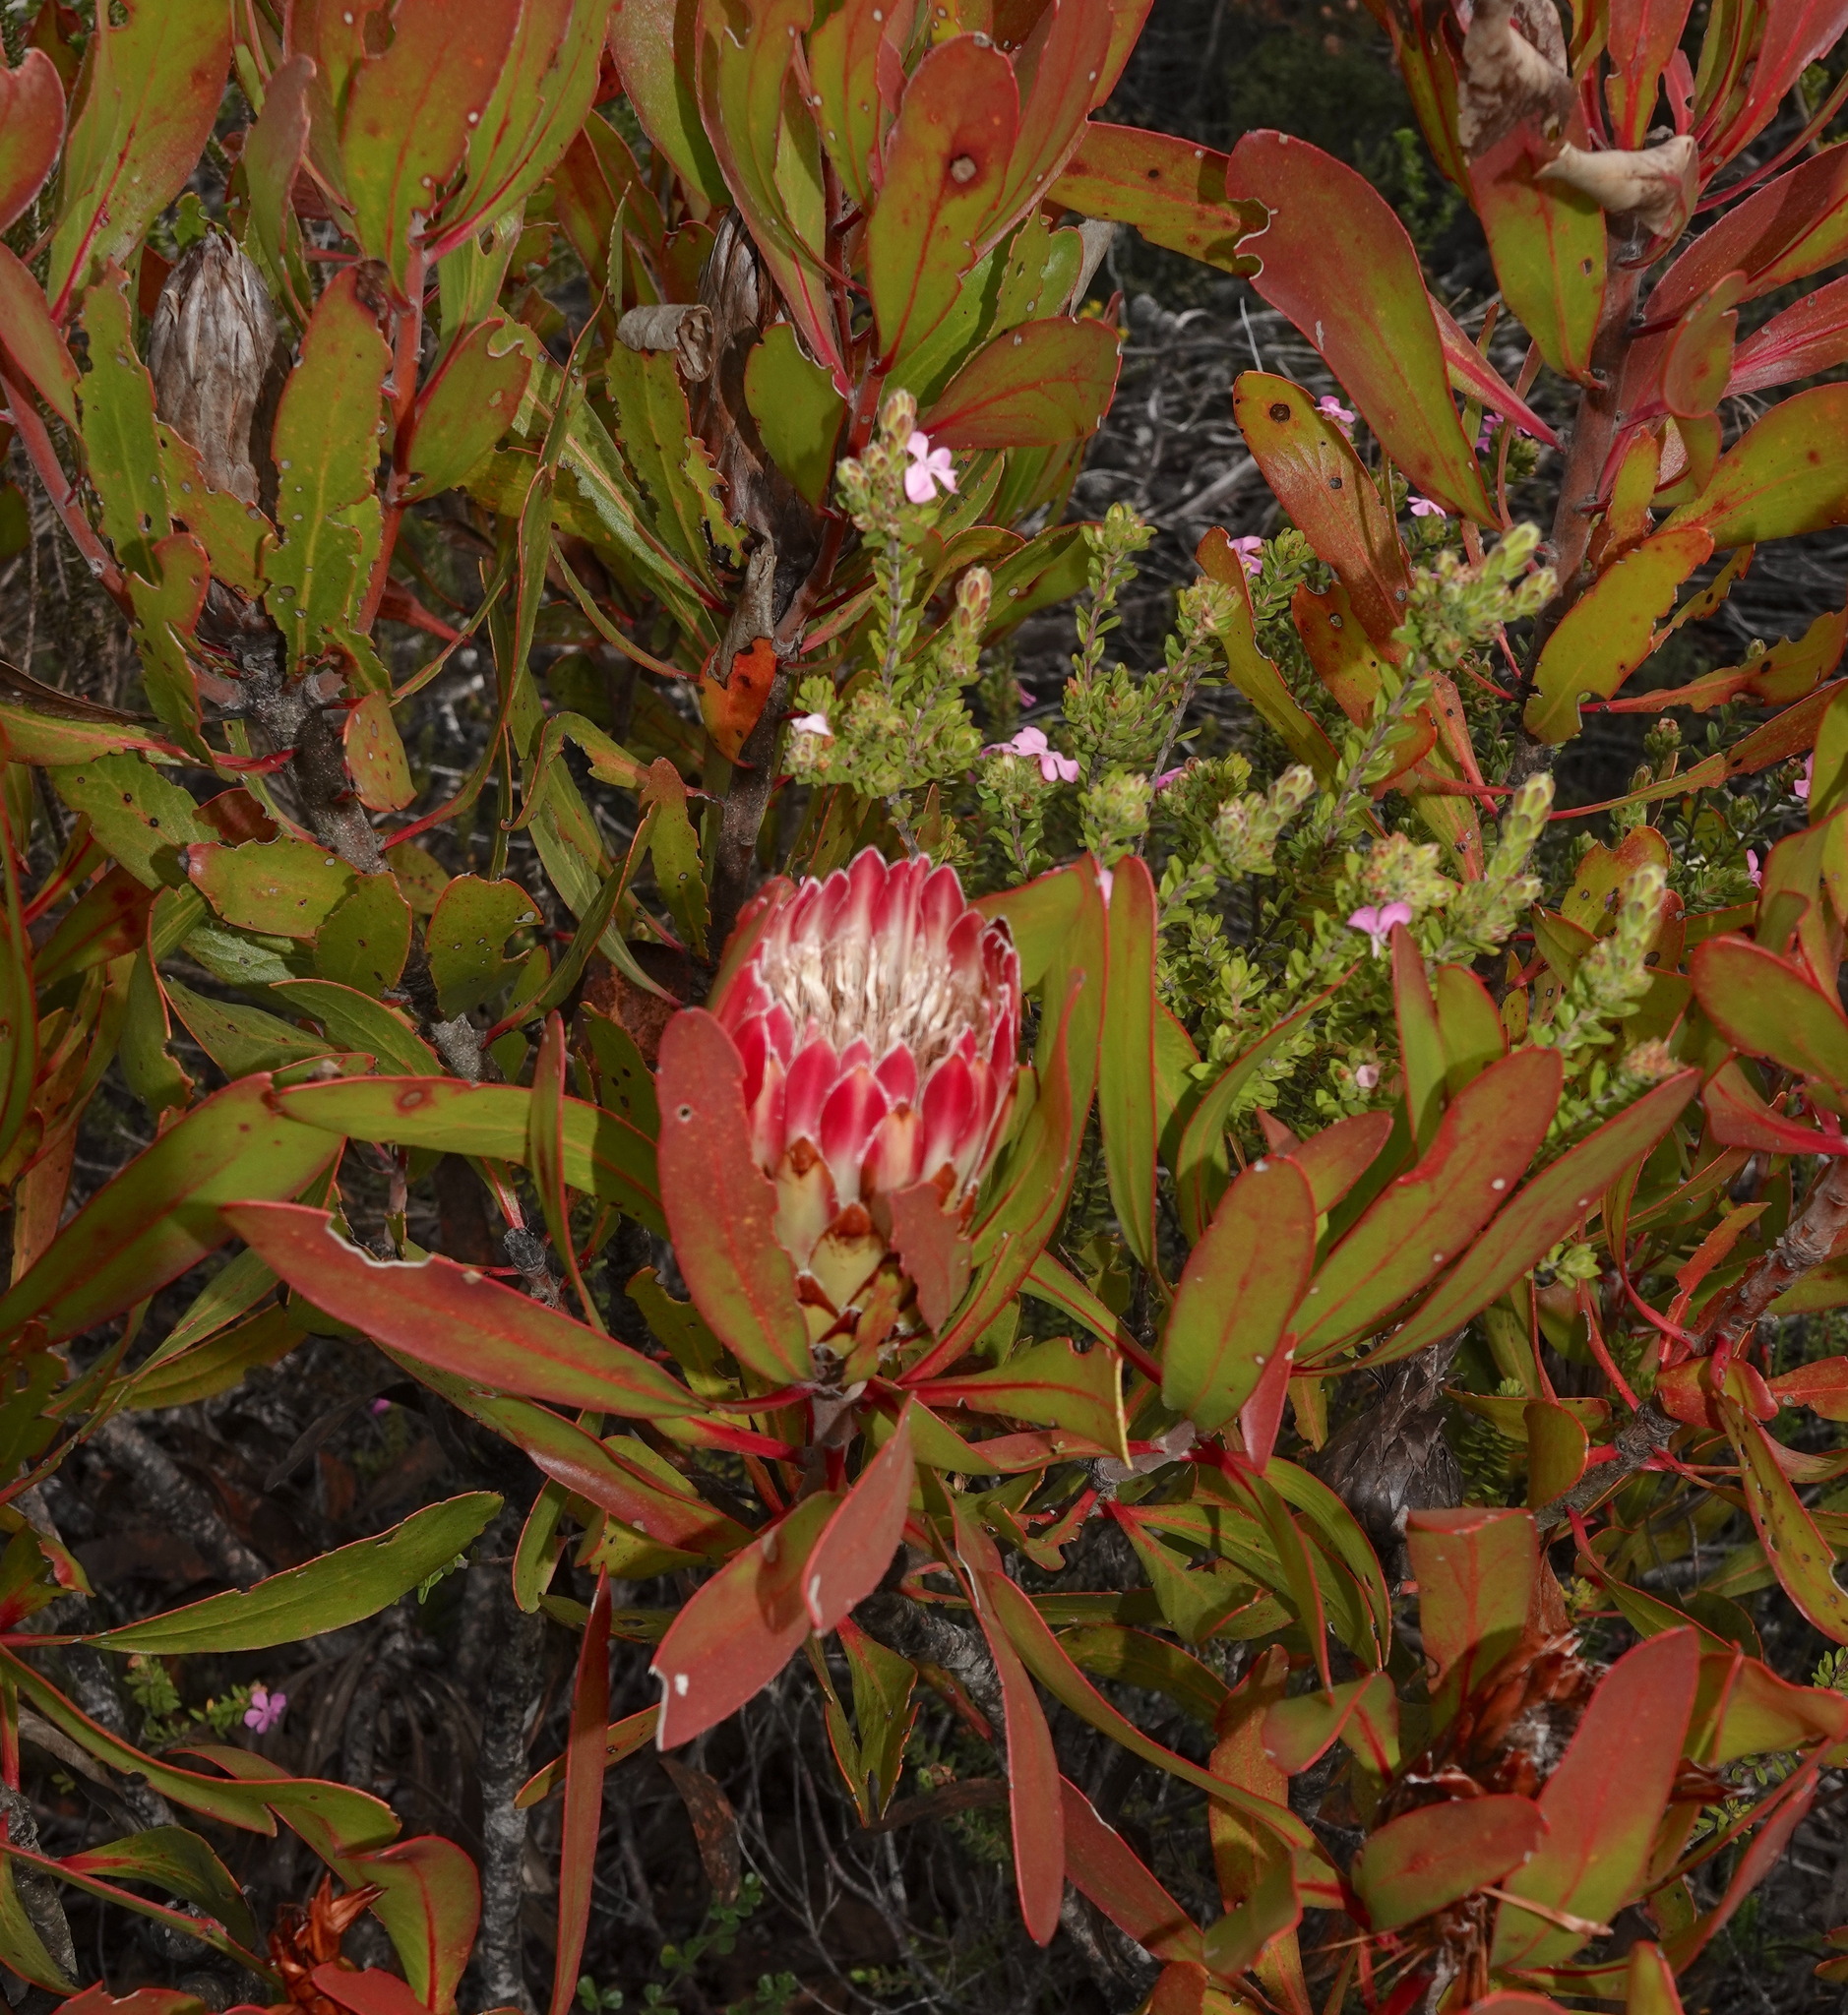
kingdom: Plantae
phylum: Tracheophyta
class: Magnoliopsida
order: Proteales
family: Proteaceae
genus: Protea
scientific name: Protea obtusifolia
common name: Bredasdorp sugarbush
